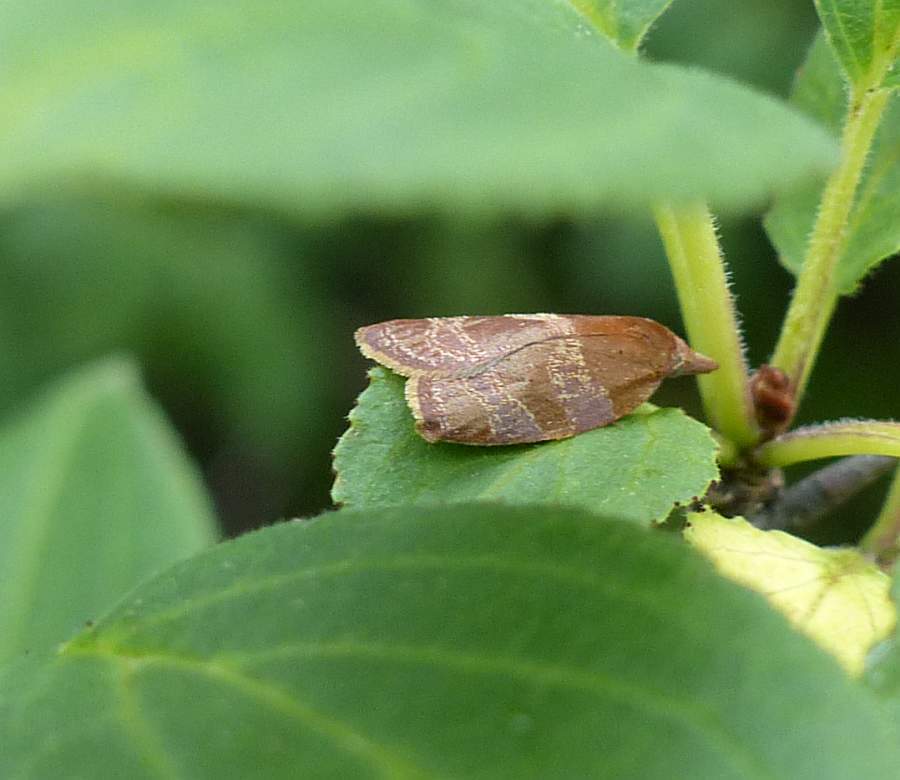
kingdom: Animalia
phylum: Arthropoda
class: Insecta
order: Lepidoptera
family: Tortricidae
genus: Cenopis
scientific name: Cenopis diluticostana
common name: Spring dead-leaf roller moth
